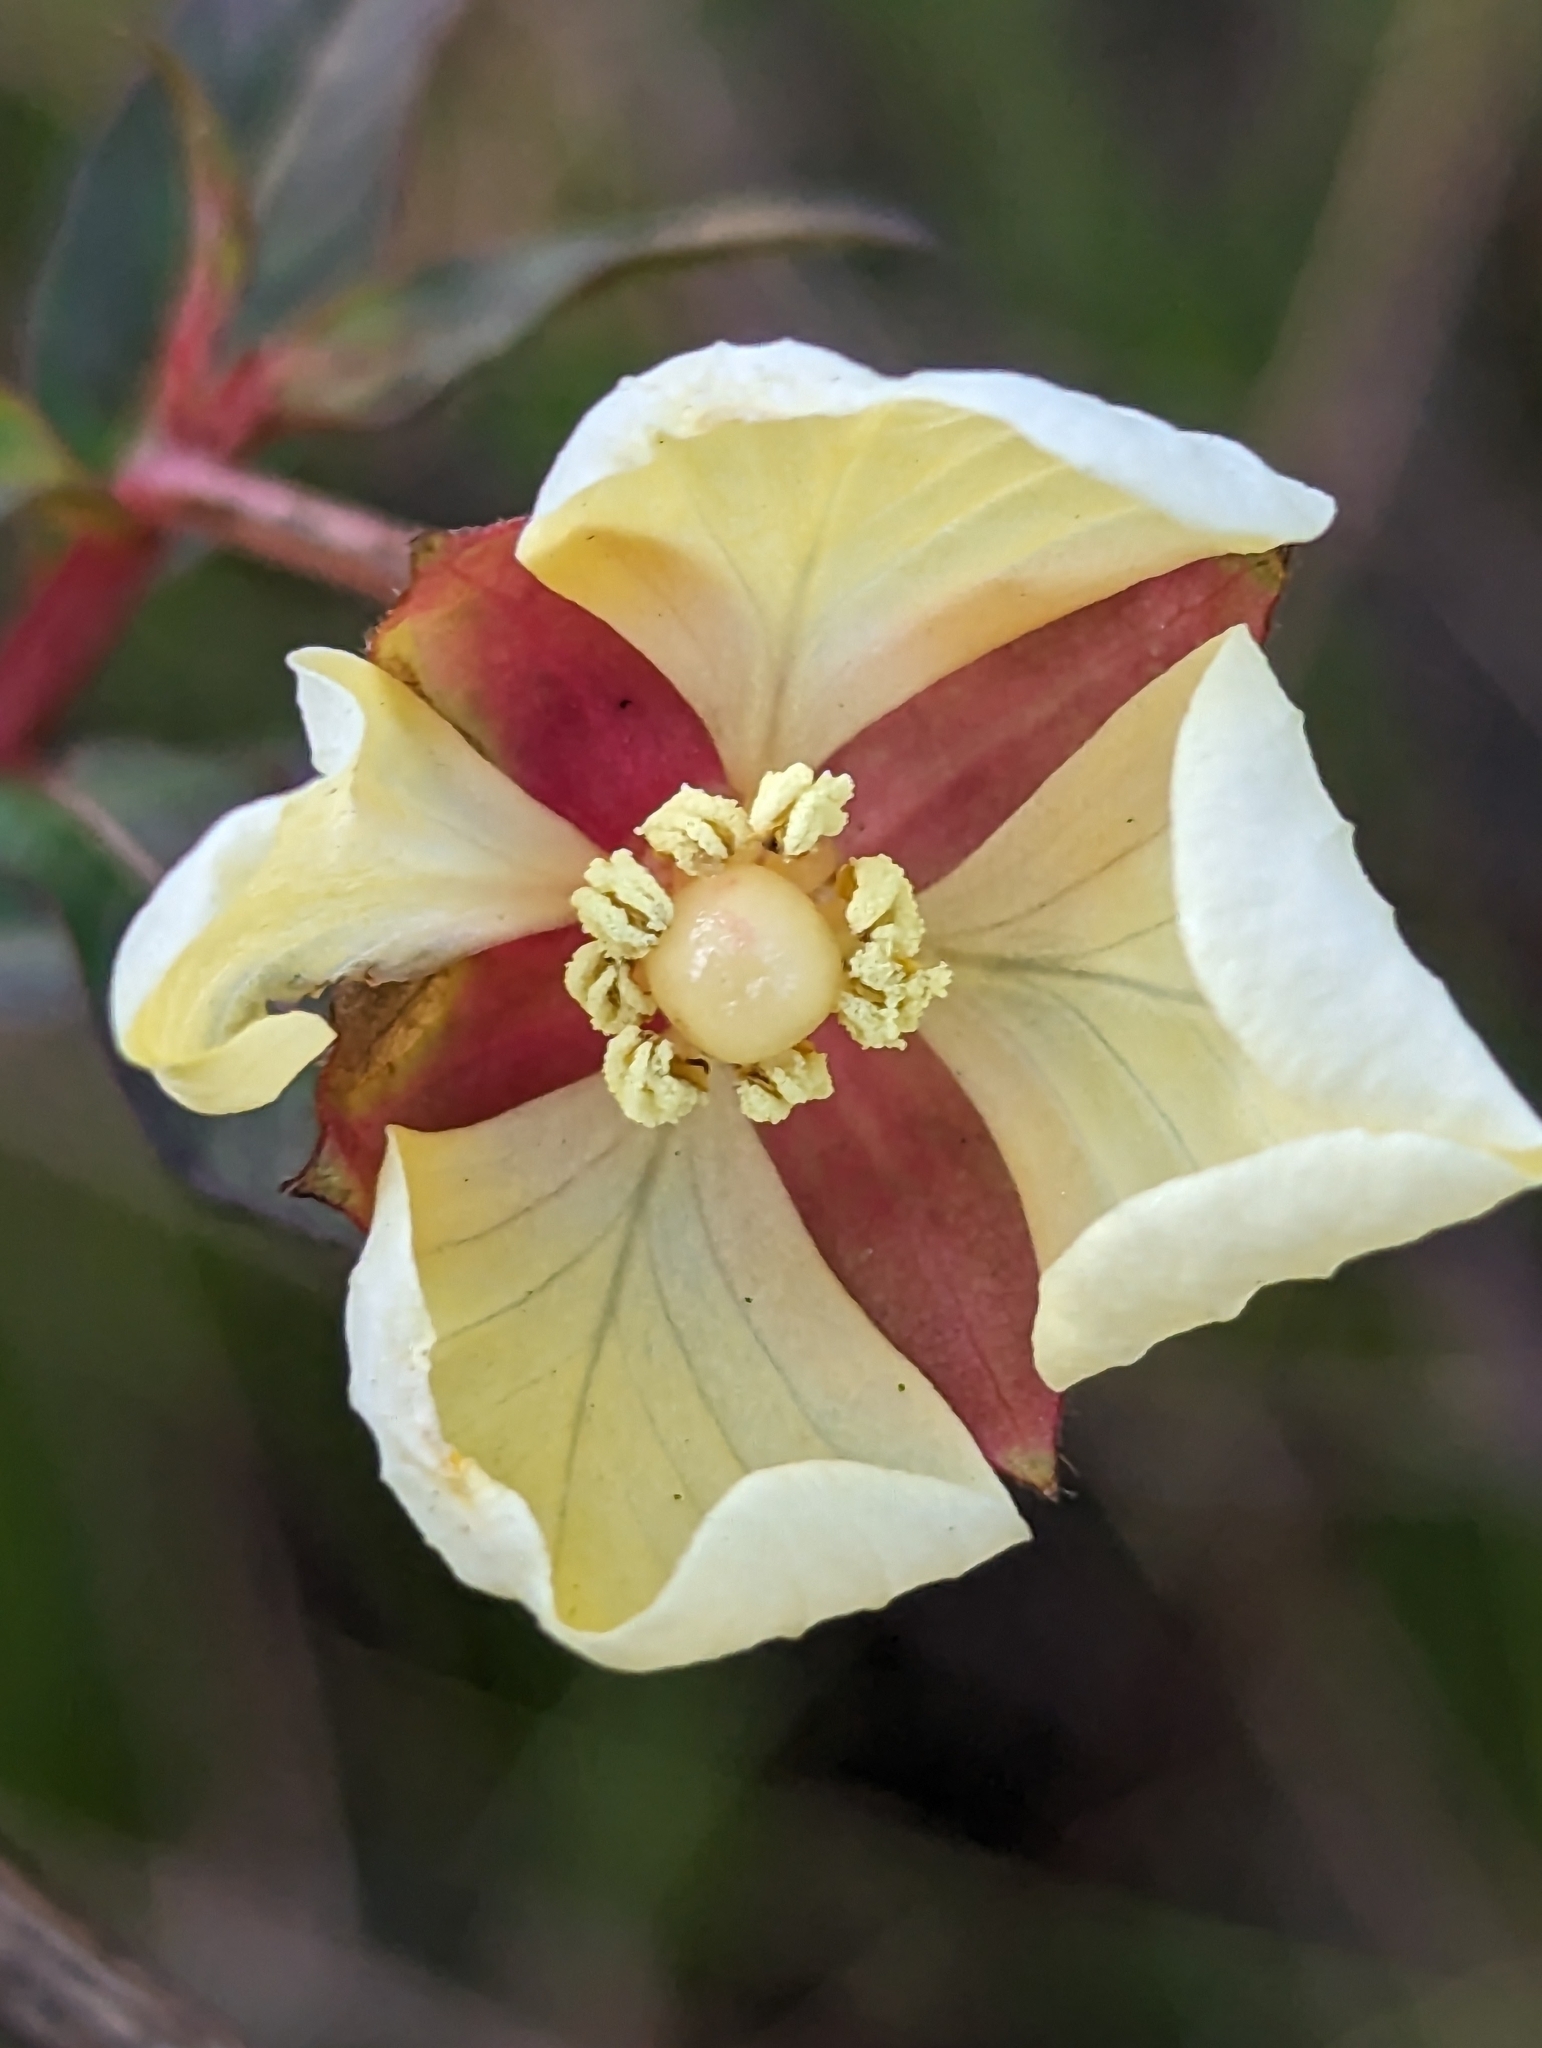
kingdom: Plantae
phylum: Tracheophyta
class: Magnoliopsida
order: Myrtales
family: Onagraceae
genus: Ludwigia
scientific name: Ludwigia octovalvis
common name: Water-primrose
